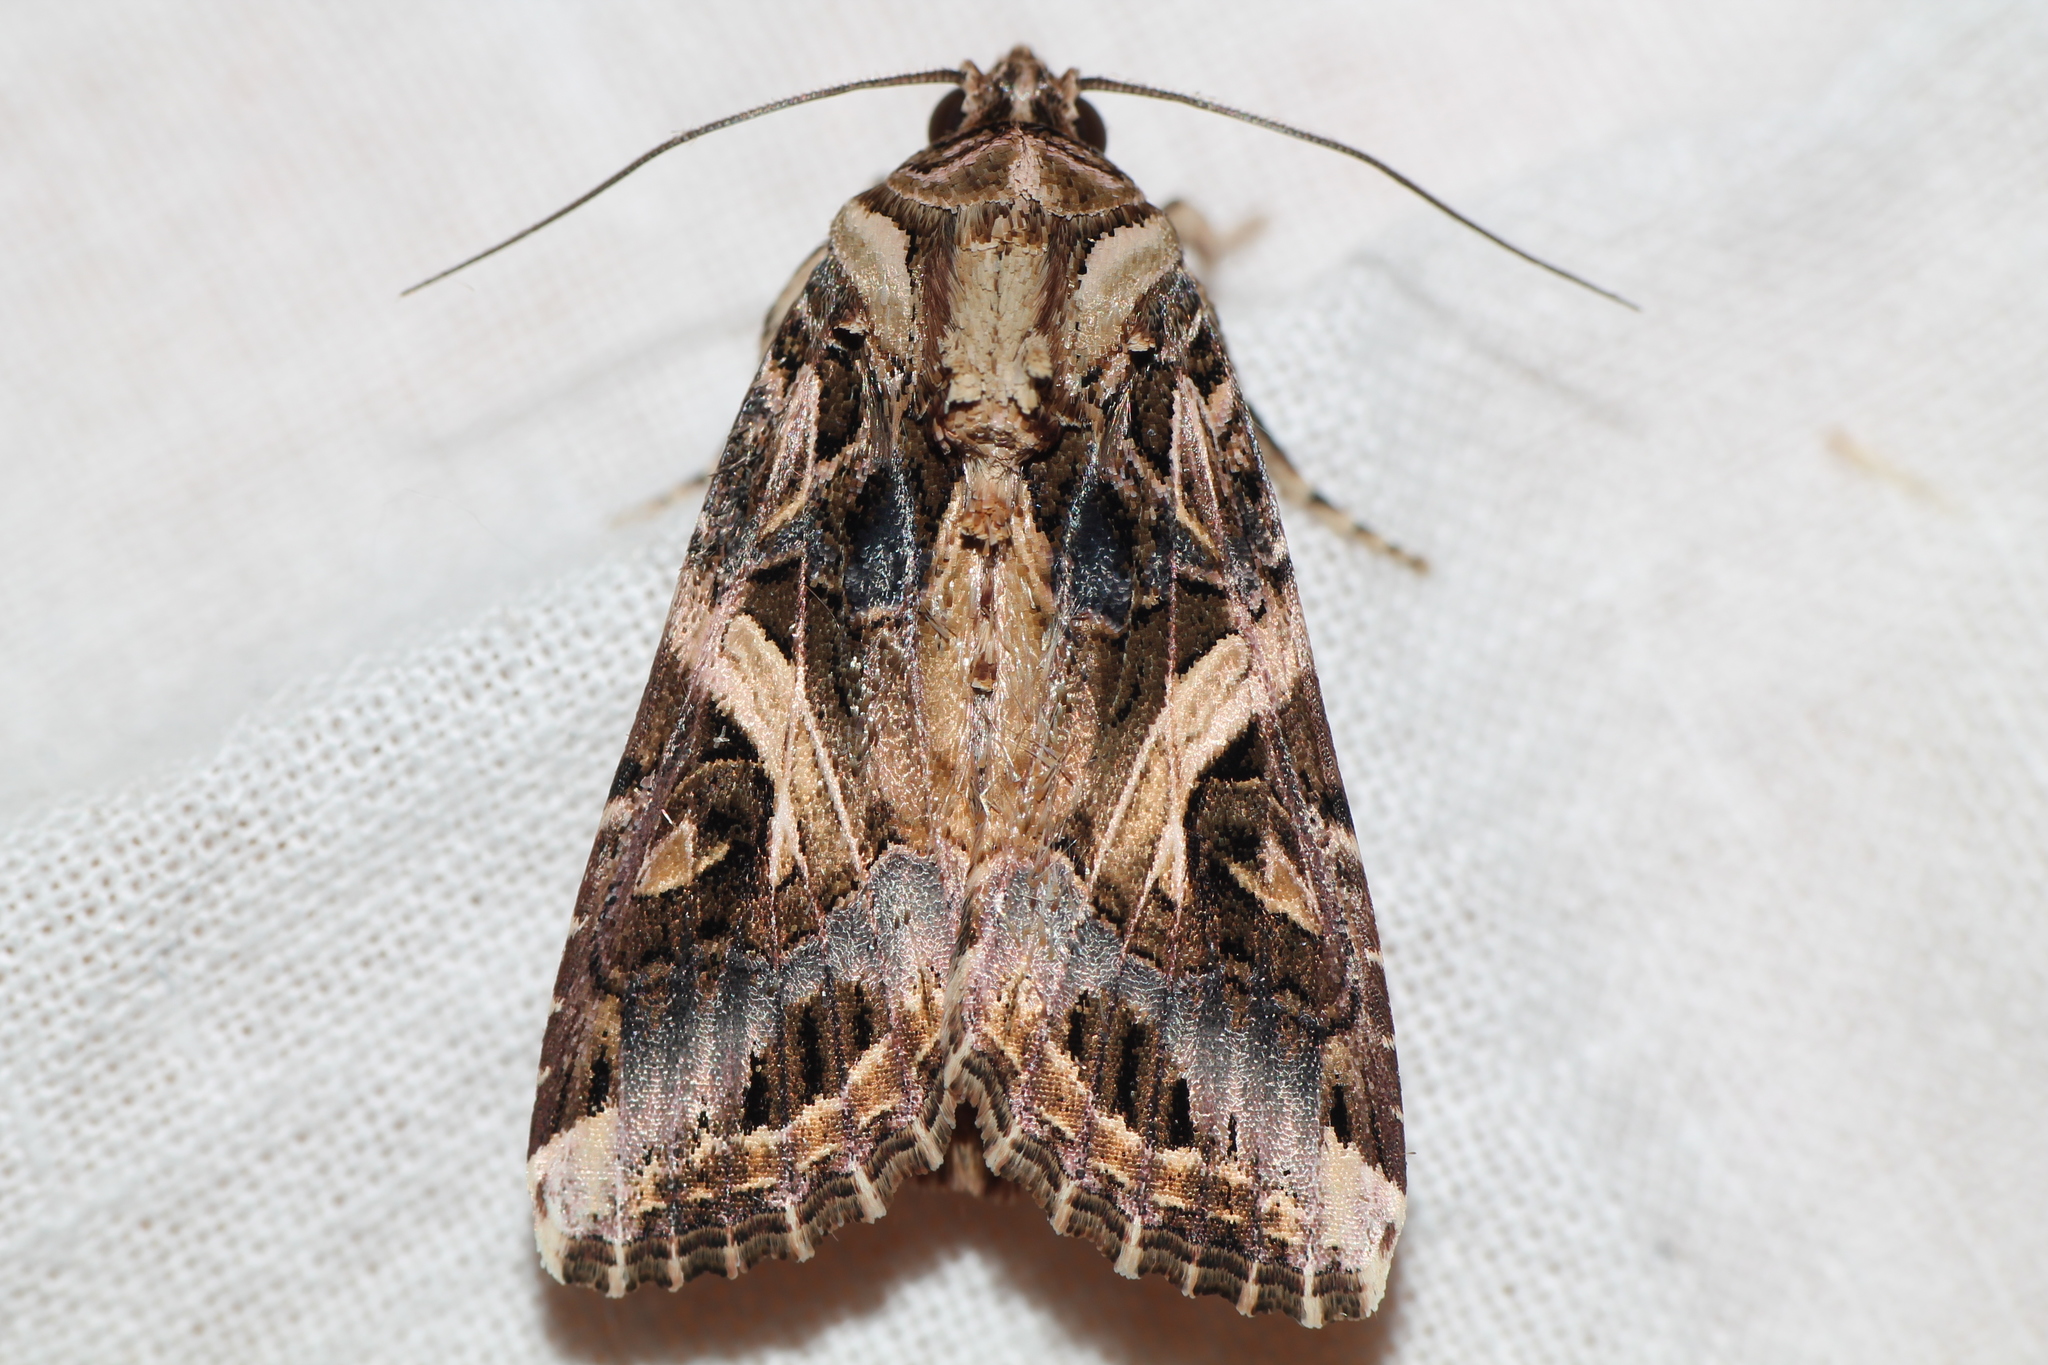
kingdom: Animalia
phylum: Arthropoda
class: Insecta
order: Lepidoptera
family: Noctuidae
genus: Spodoptera
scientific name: Spodoptera litura
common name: Asian cotton leafworm
